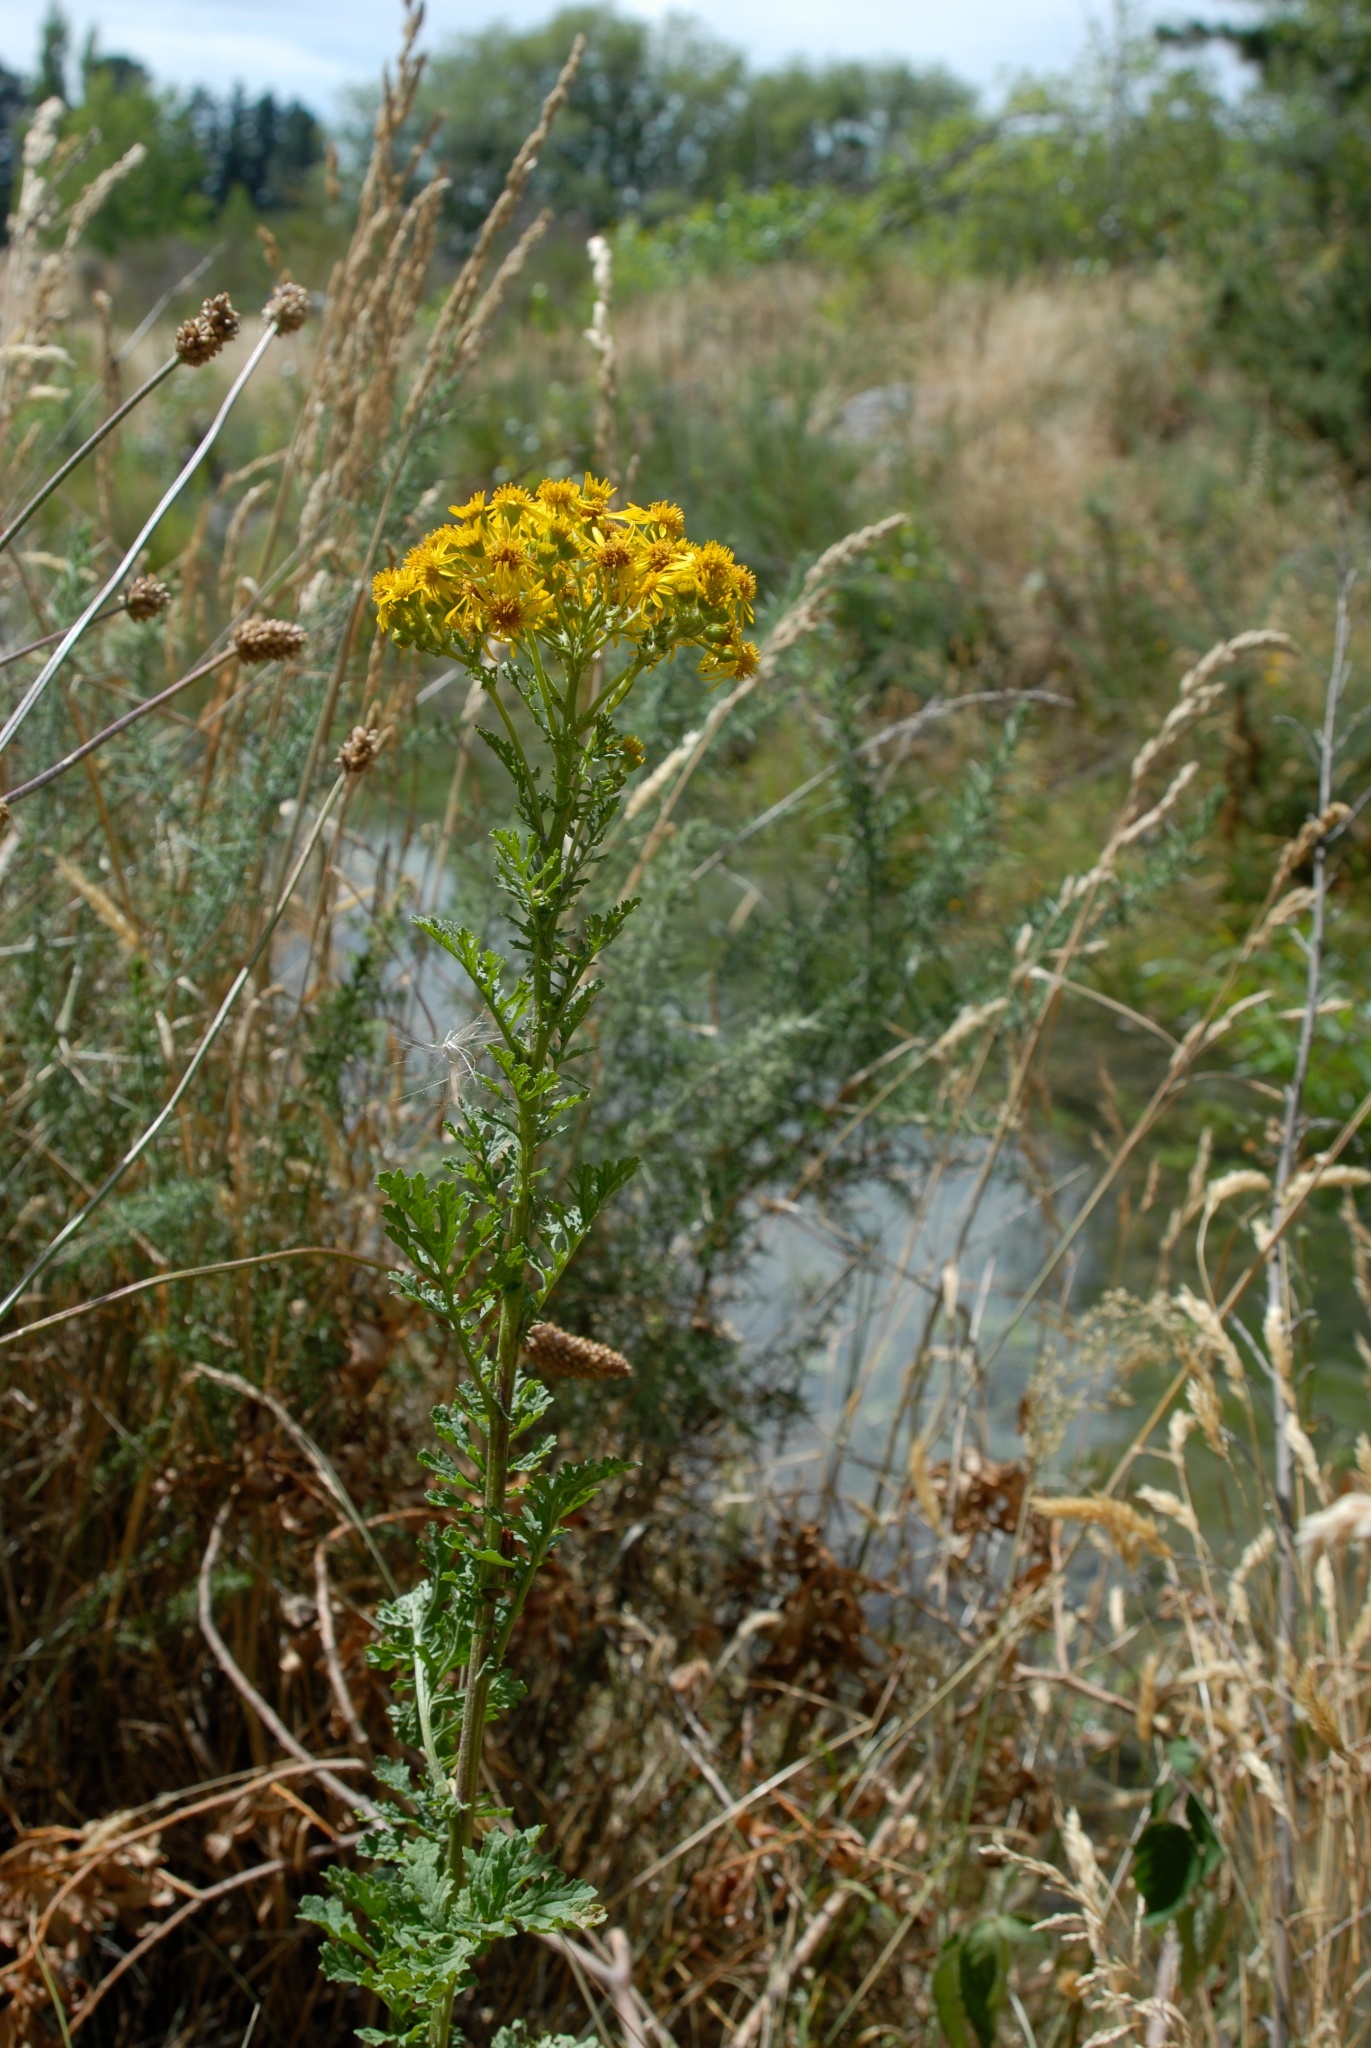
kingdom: Plantae
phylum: Tracheophyta
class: Magnoliopsida
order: Asterales
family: Asteraceae
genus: Jacobaea
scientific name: Jacobaea vulgaris
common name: Stinking willie
